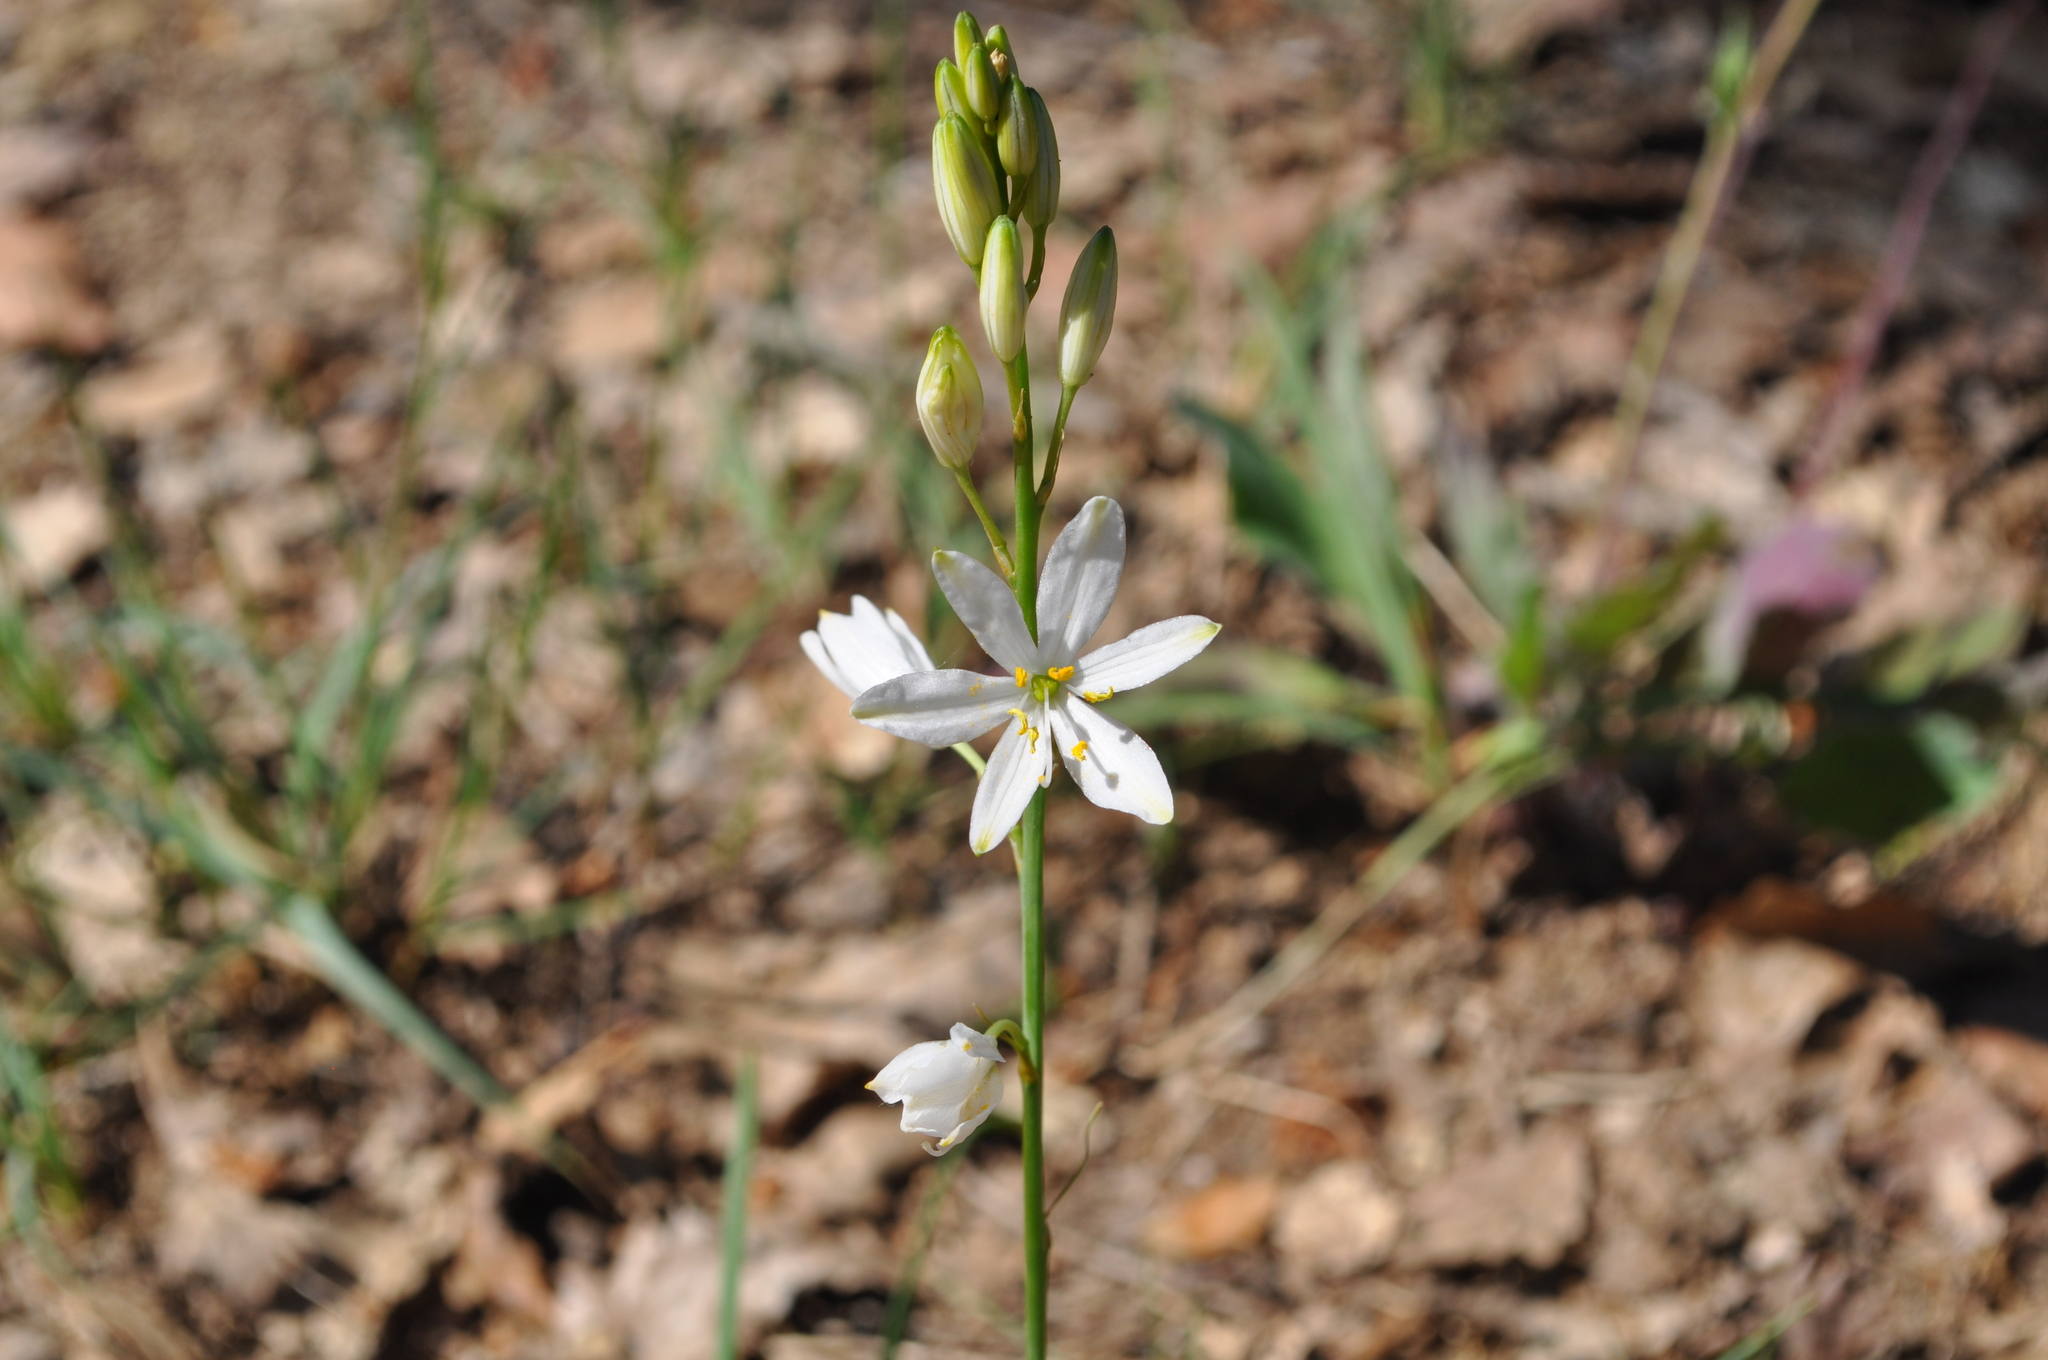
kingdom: Plantae
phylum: Tracheophyta
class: Liliopsida
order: Asparagales
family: Asparagaceae
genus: Anthericum
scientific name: Anthericum liliago
